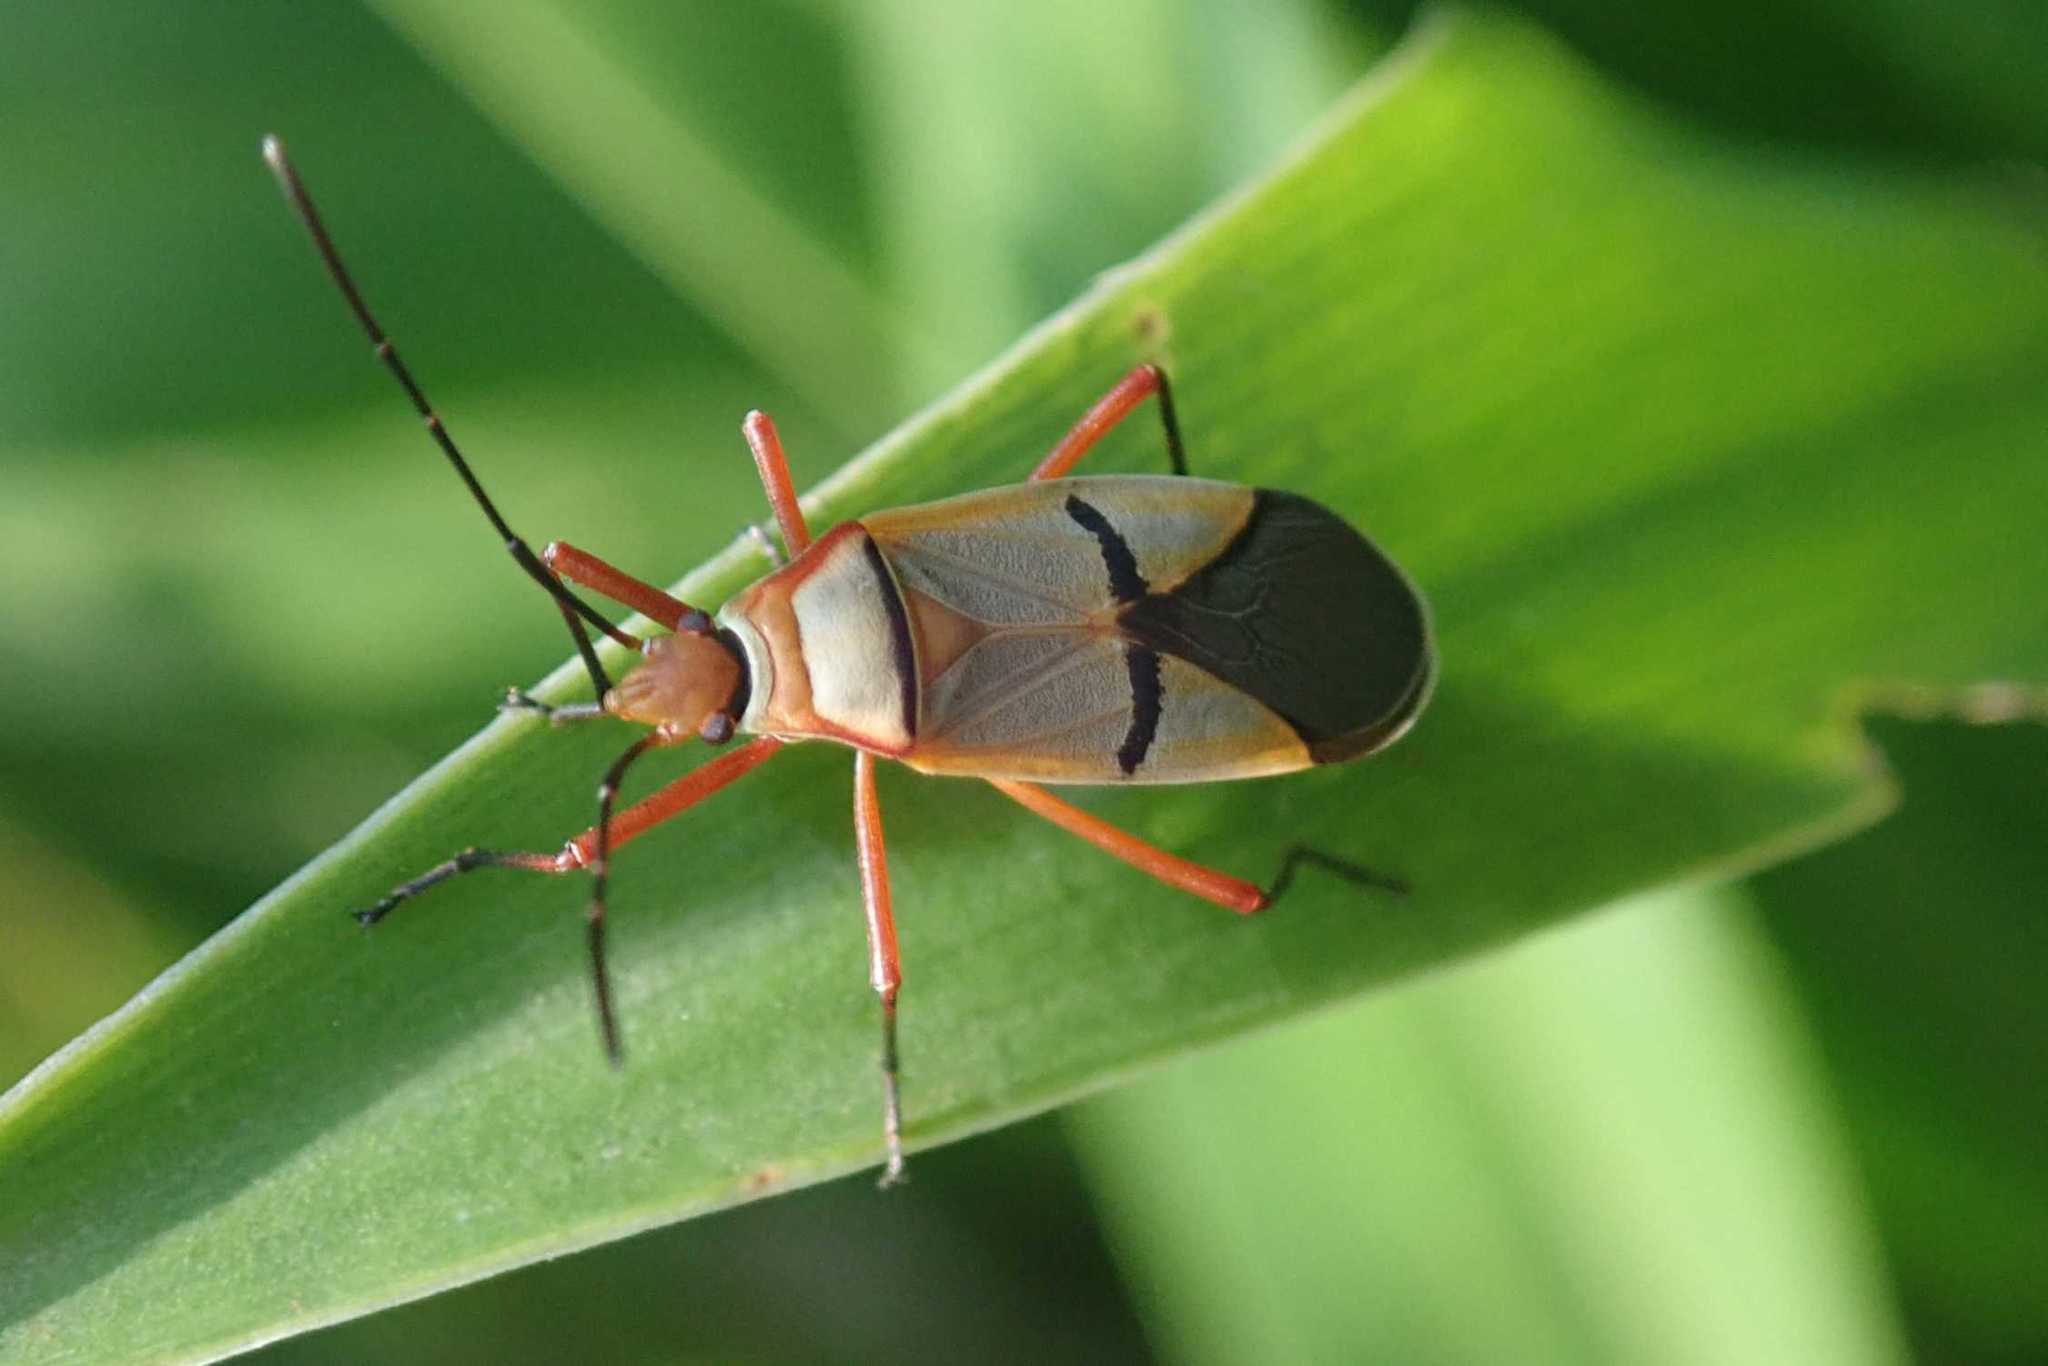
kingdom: Animalia
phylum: Arthropoda
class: Insecta
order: Hemiptera
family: Pyrrhocoridae
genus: Dysdercus
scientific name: Dysdercus
